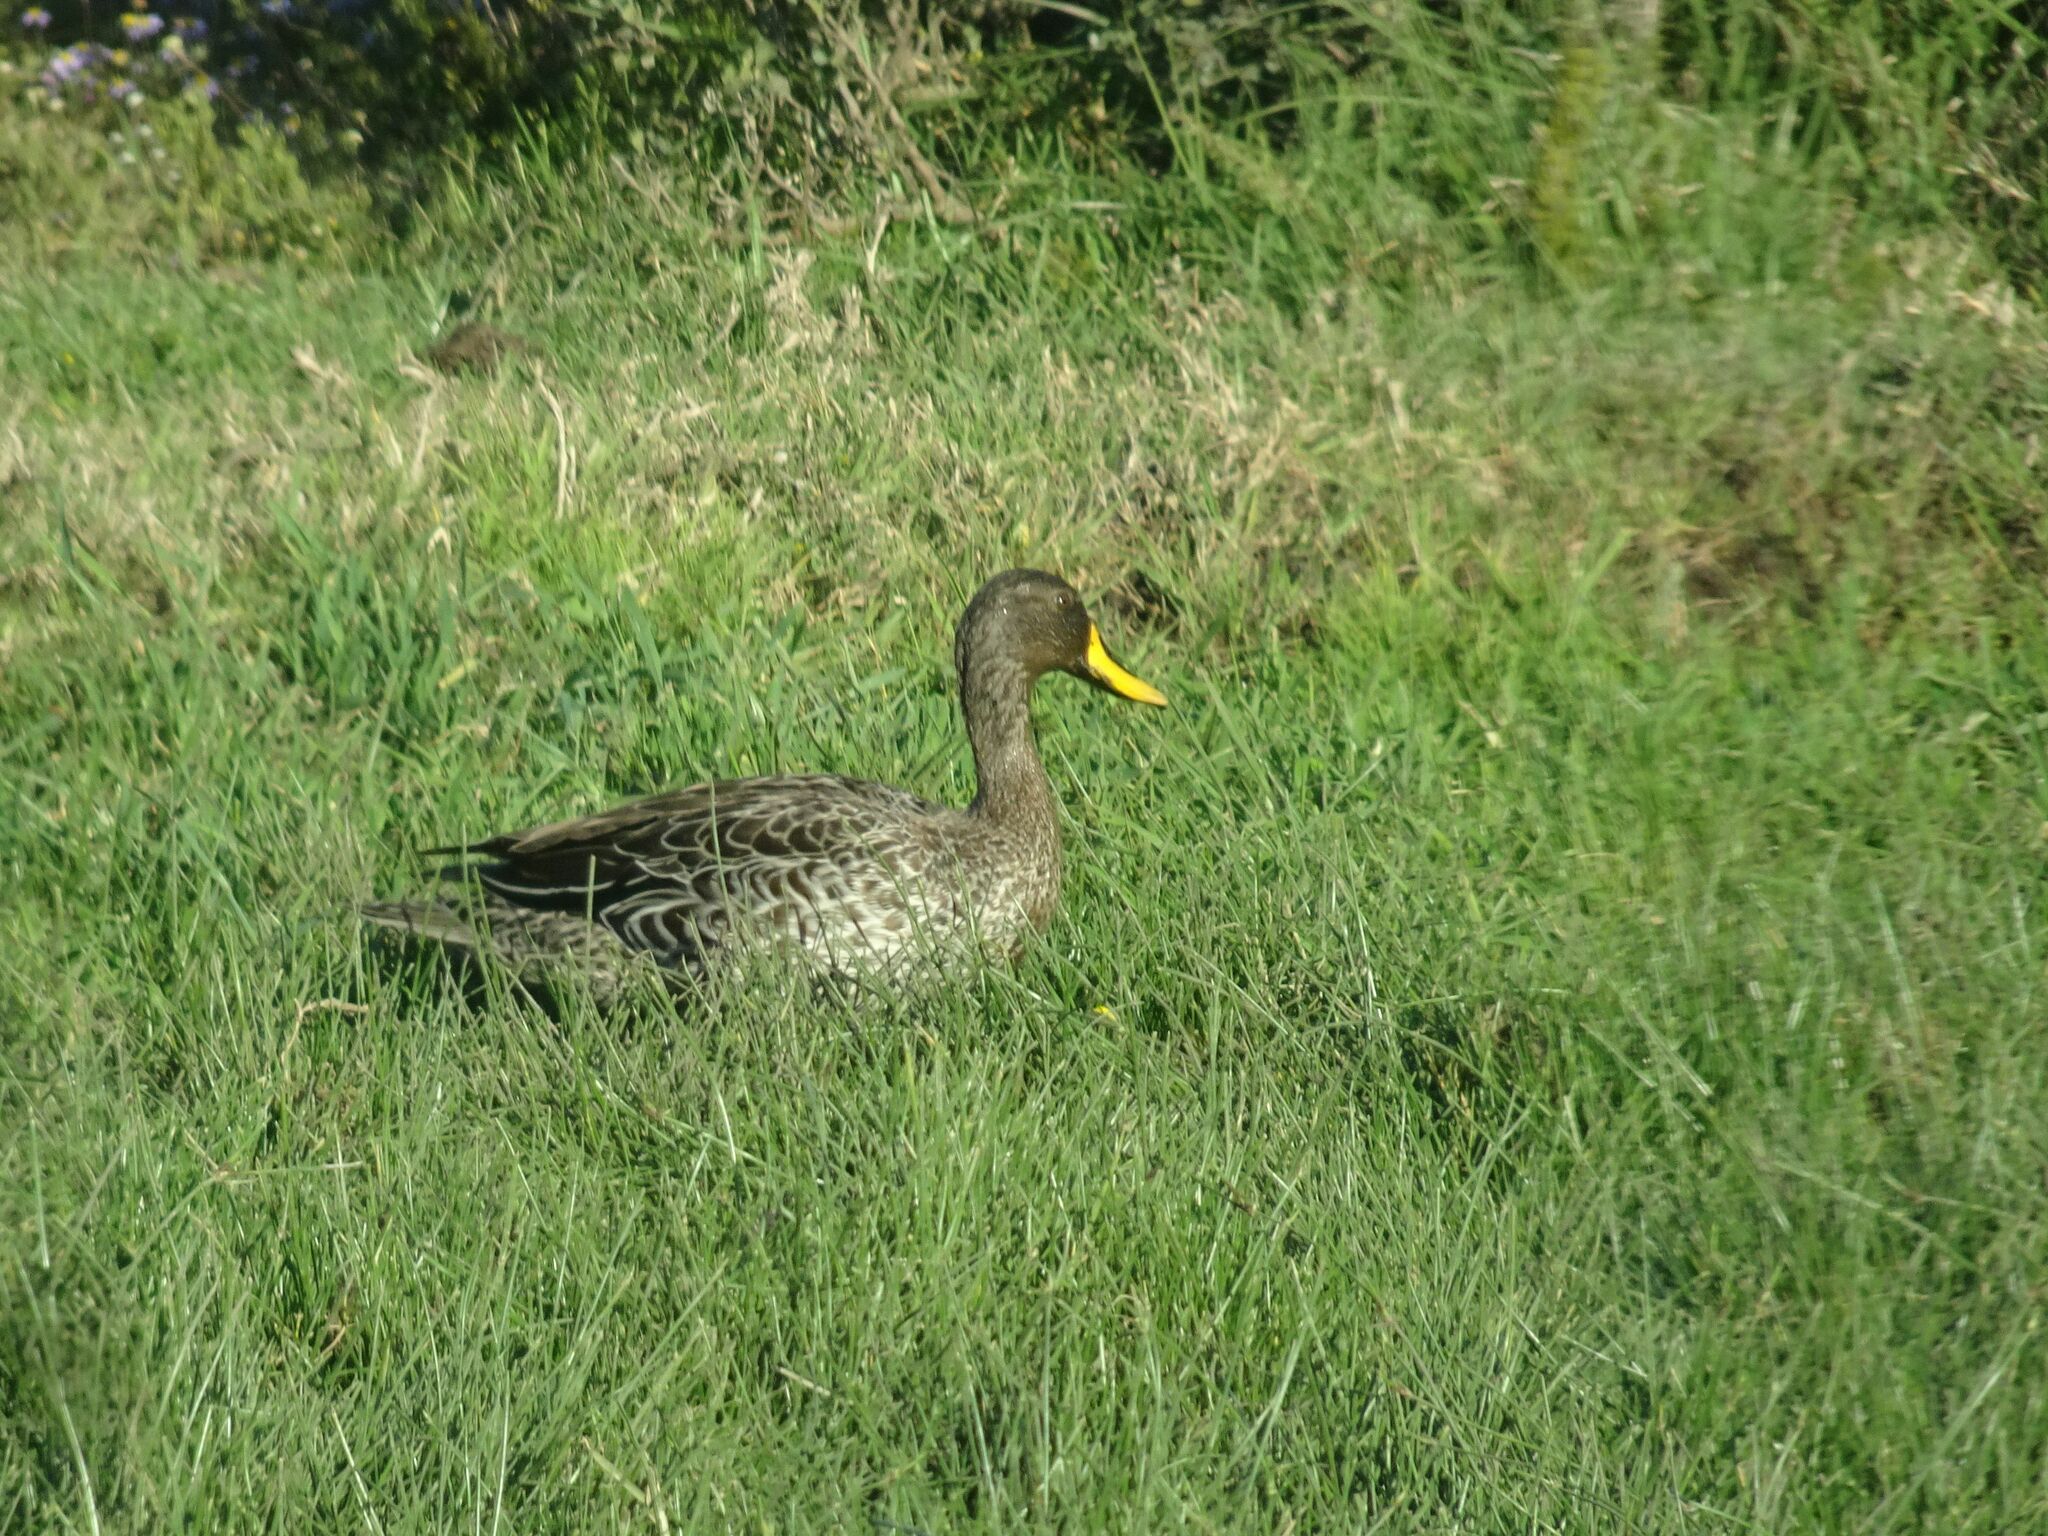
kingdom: Animalia
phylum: Chordata
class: Aves
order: Anseriformes
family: Anatidae
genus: Anas
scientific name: Anas undulata
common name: Yellow-billed duck
